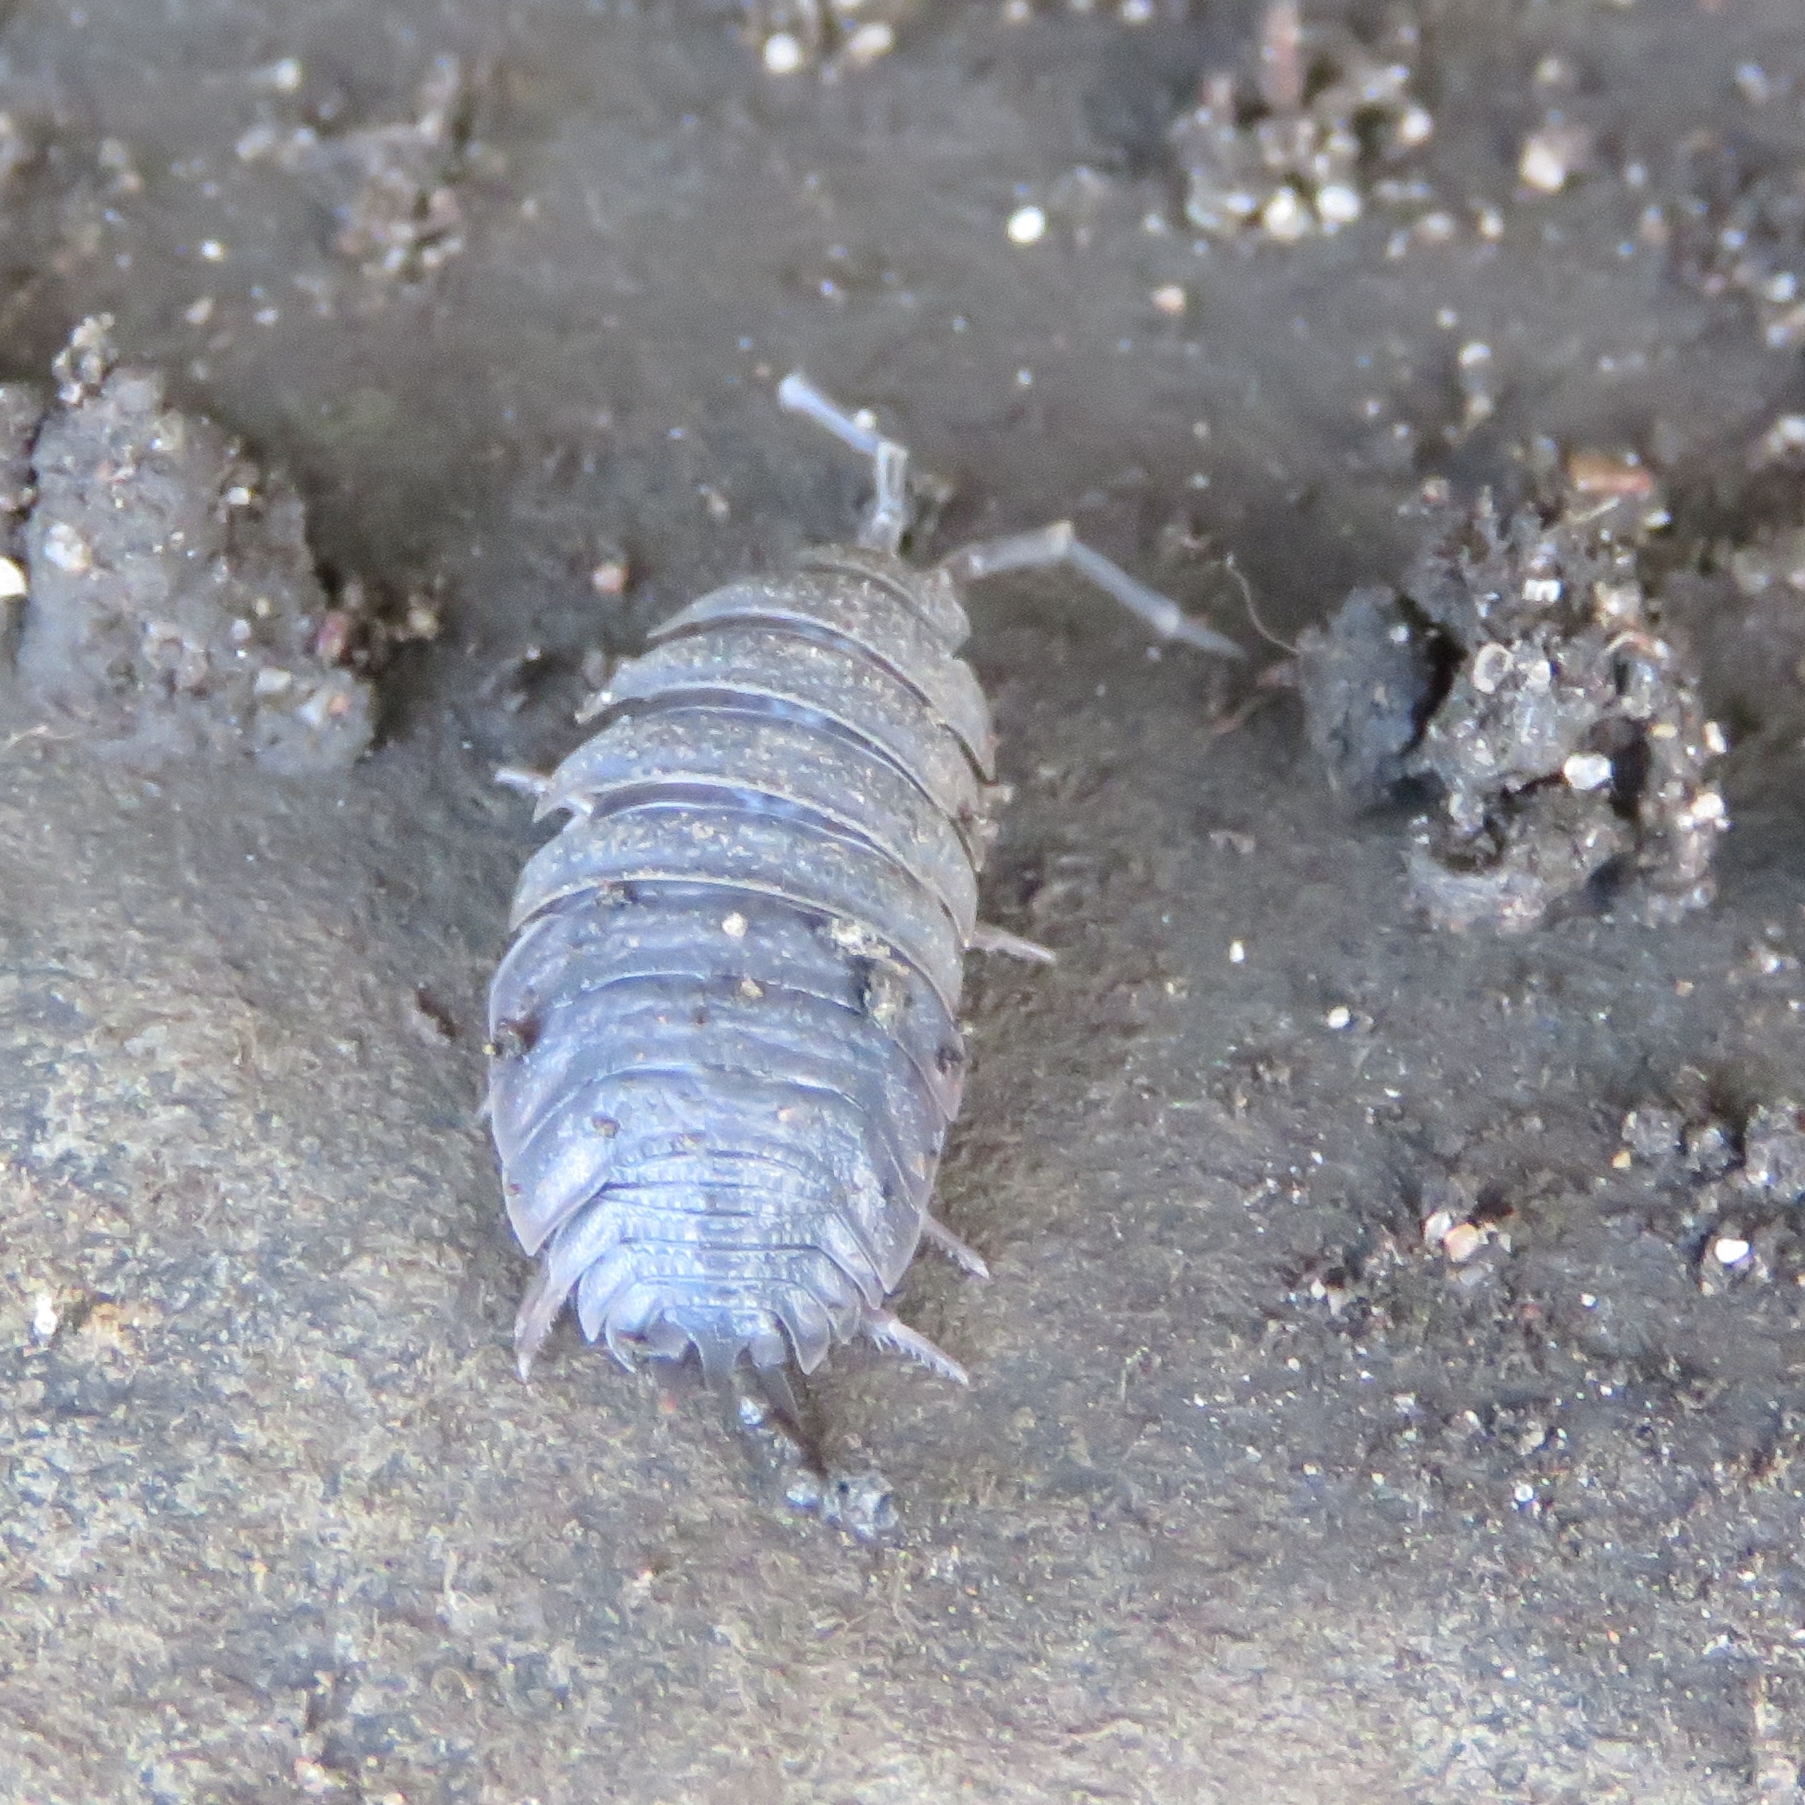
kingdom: Animalia
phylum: Arthropoda
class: Malacostraca
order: Isopoda
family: Porcellionidae
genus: Porcellio
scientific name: Porcellio scaber
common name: Common rough woodlouse
